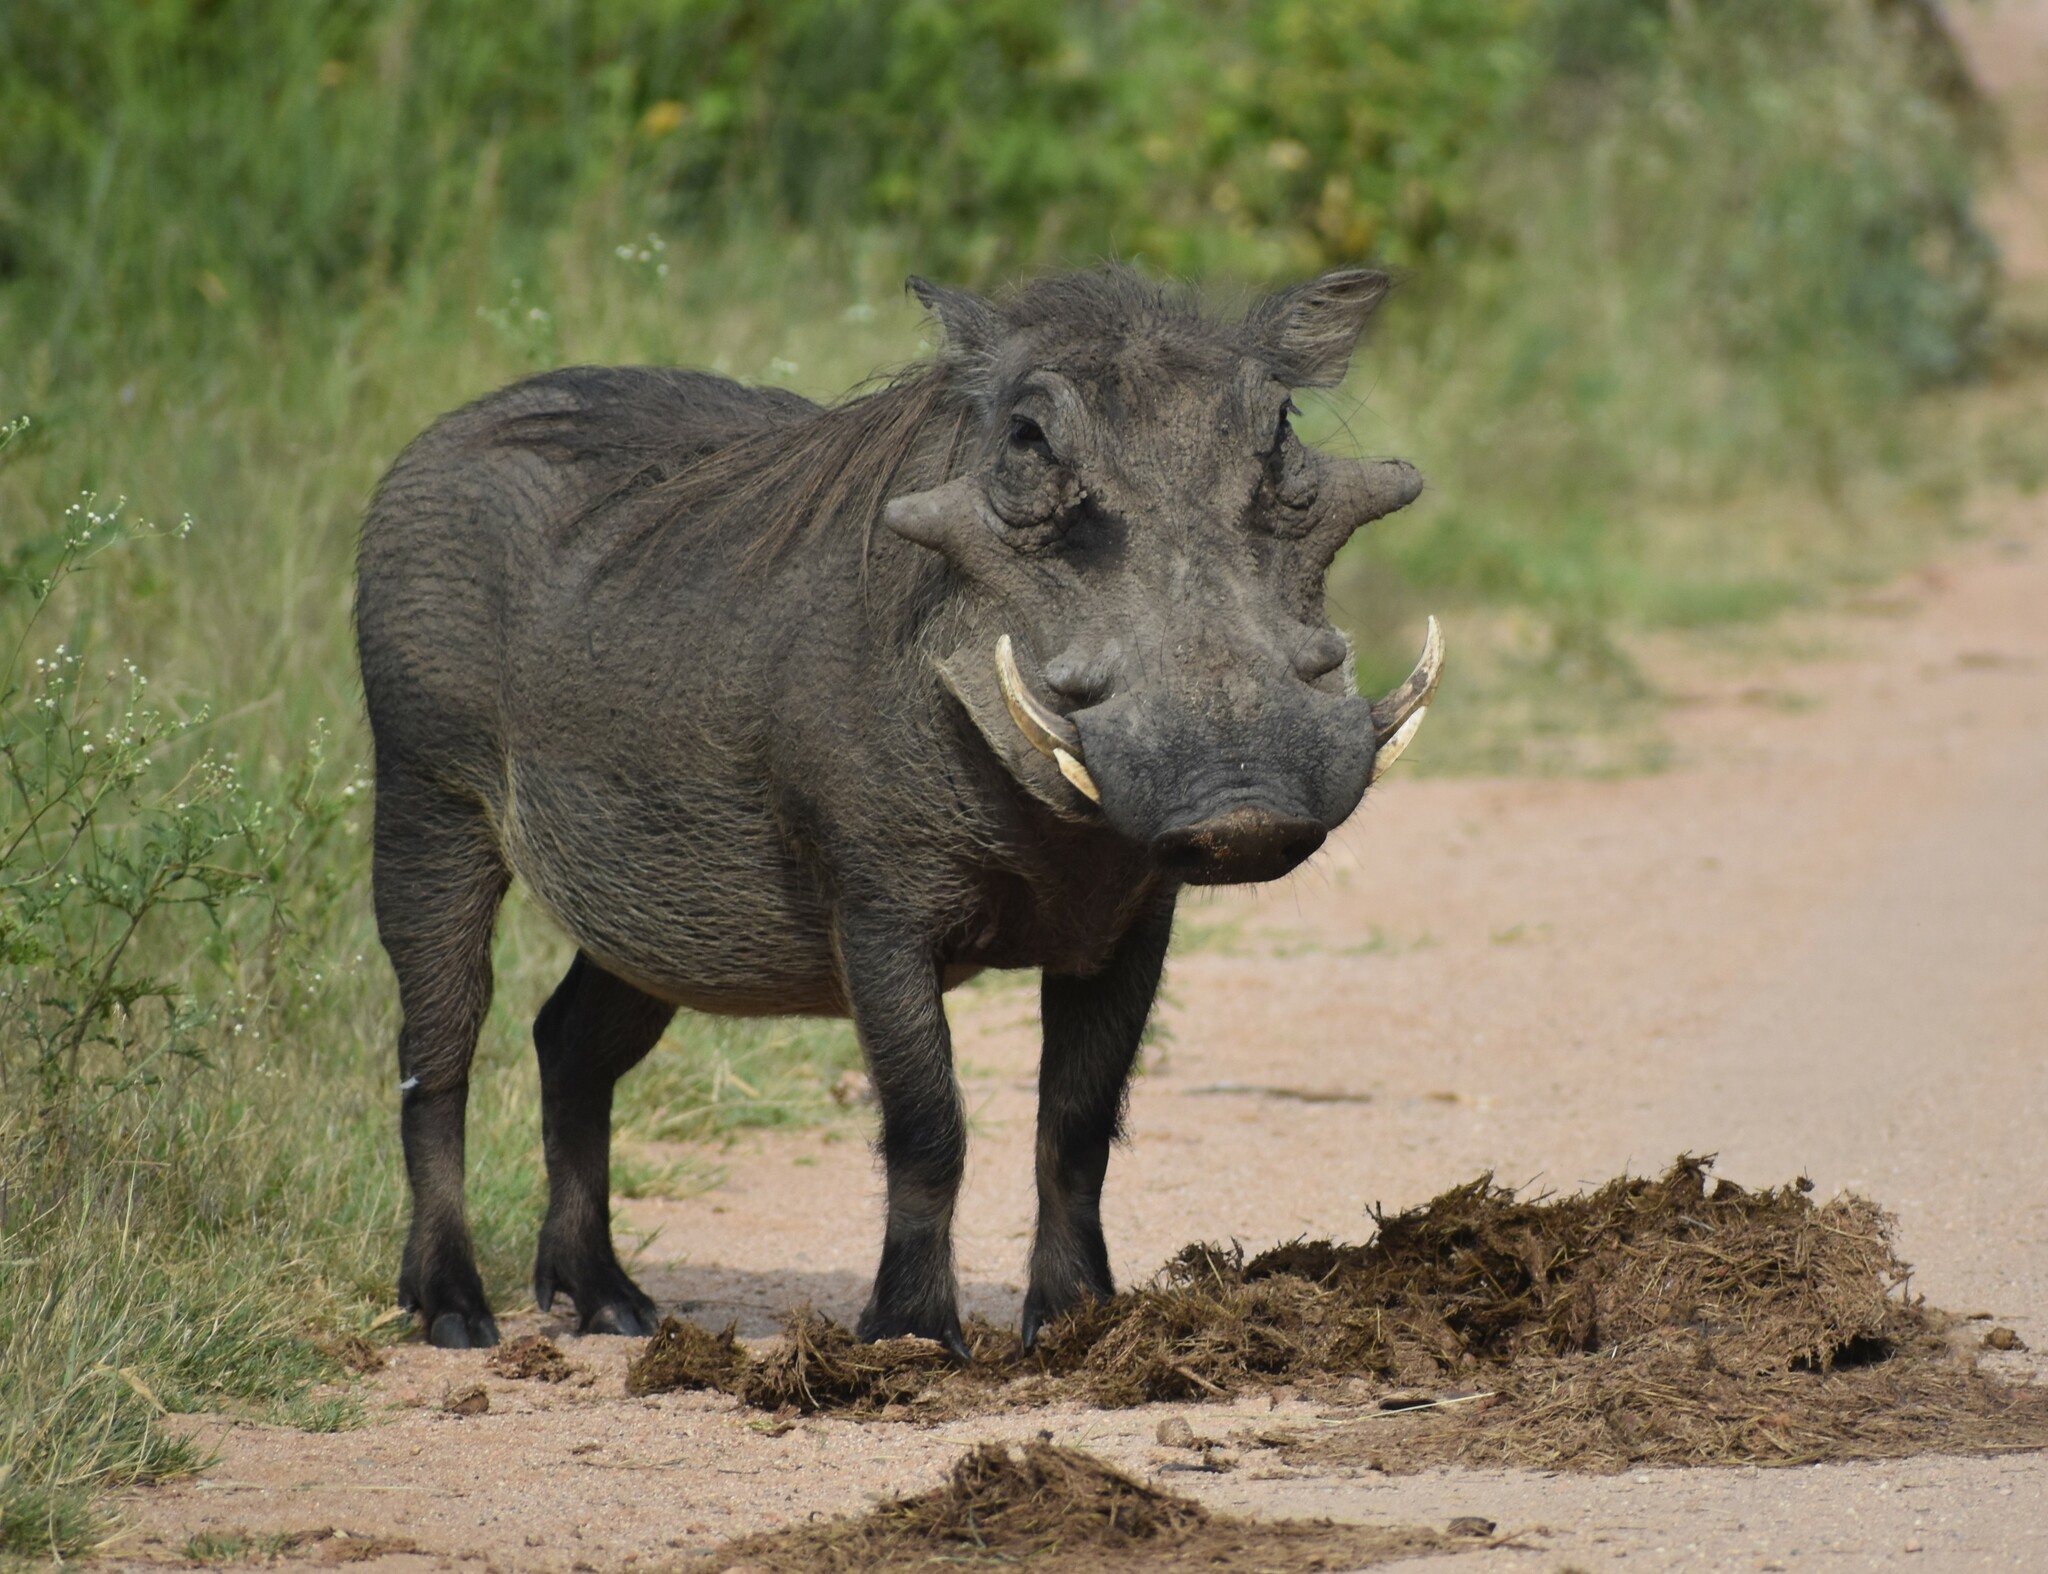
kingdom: Animalia
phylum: Chordata
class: Mammalia
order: Artiodactyla
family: Suidae
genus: Phacochoerus
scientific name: Phacochoerus africanus
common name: Common warthog
